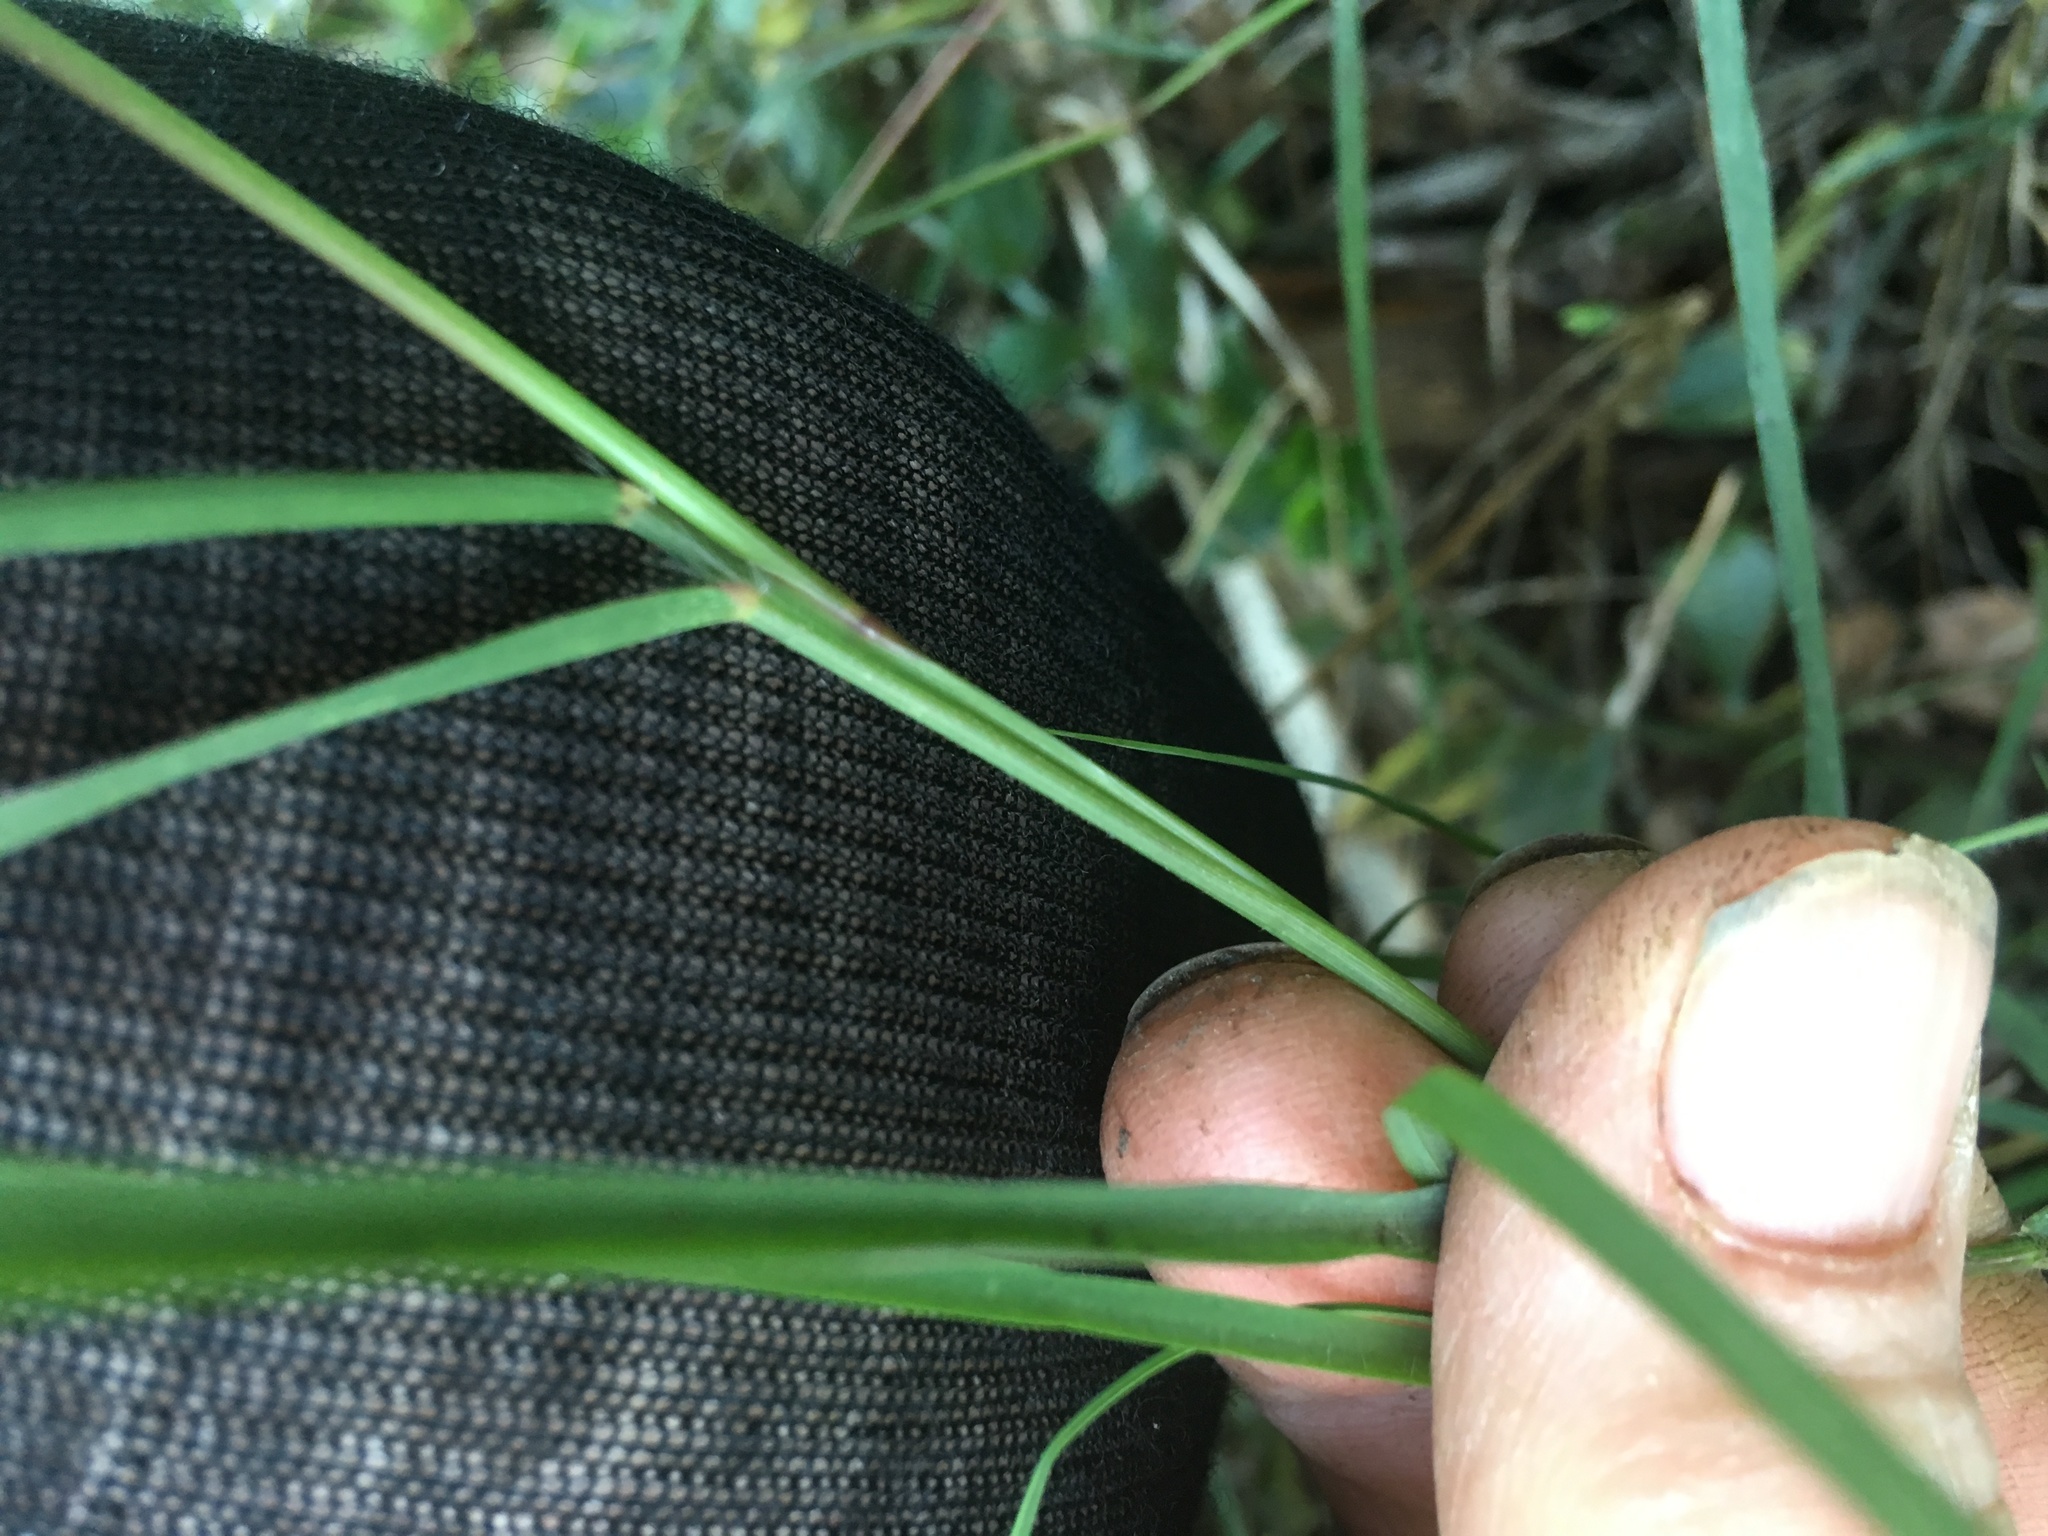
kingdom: Plantae
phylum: Tracheophyta
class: Liliopsida
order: Poales
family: Poaceae
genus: Cynodon
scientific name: Cynodon dactylon
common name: Bermuda grass
